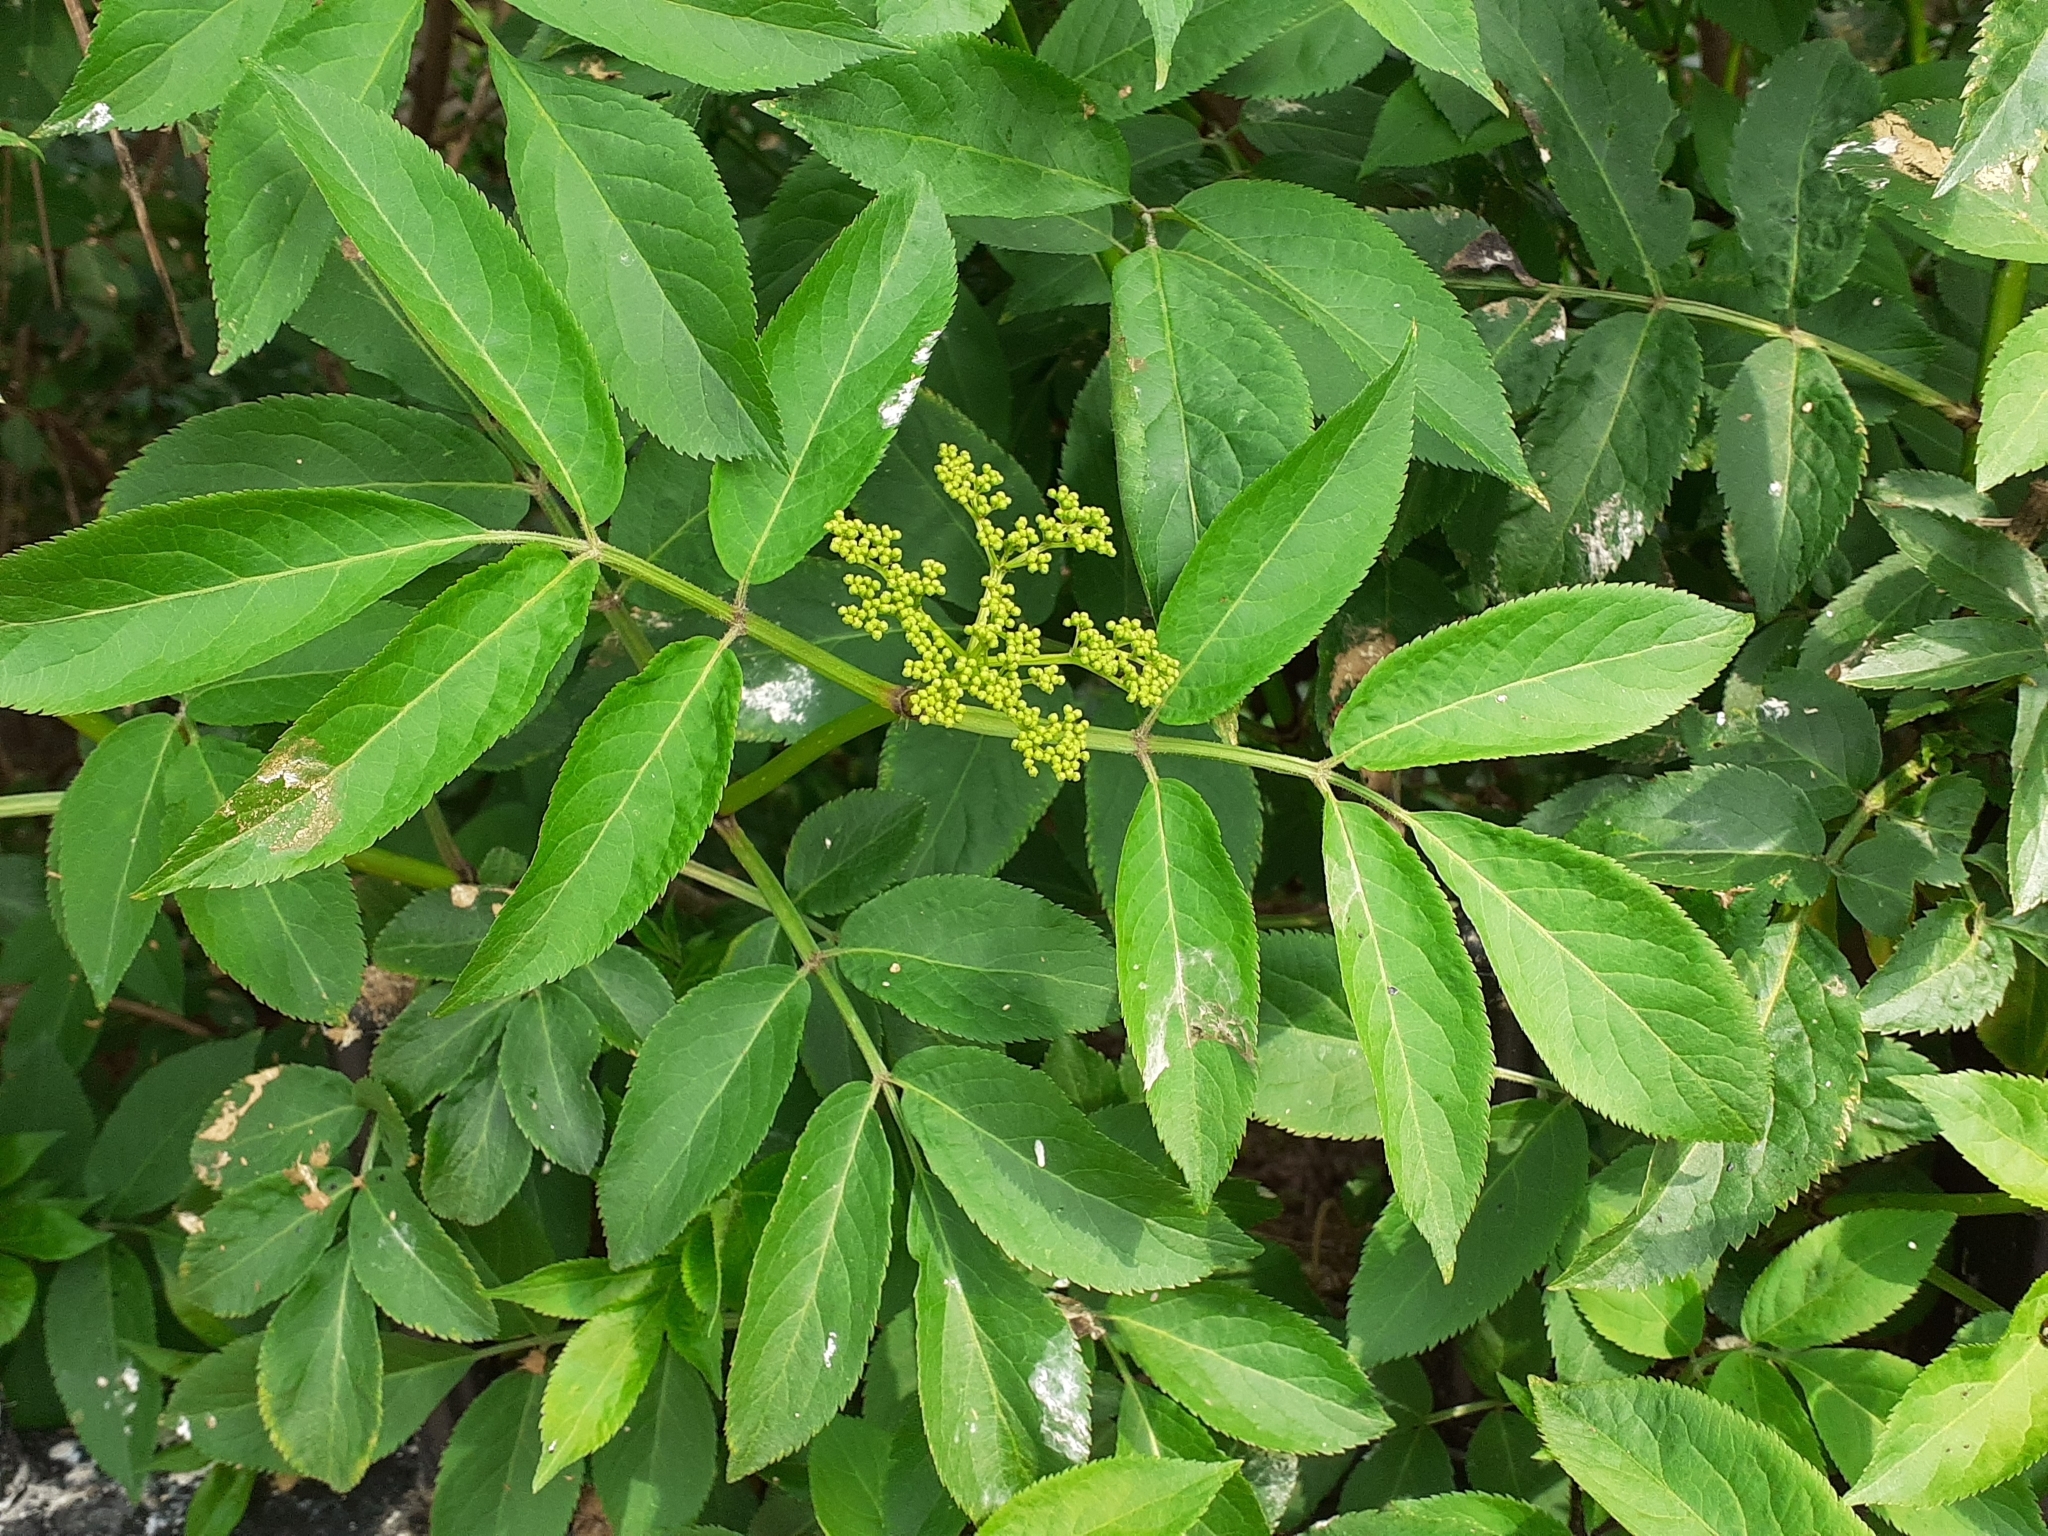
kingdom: Plantae
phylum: Tracheophyta
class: Magnoliopsida
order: Dipsacales
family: Viburnaceae
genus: Sambucus
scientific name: Sambucus nigra
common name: Elder
